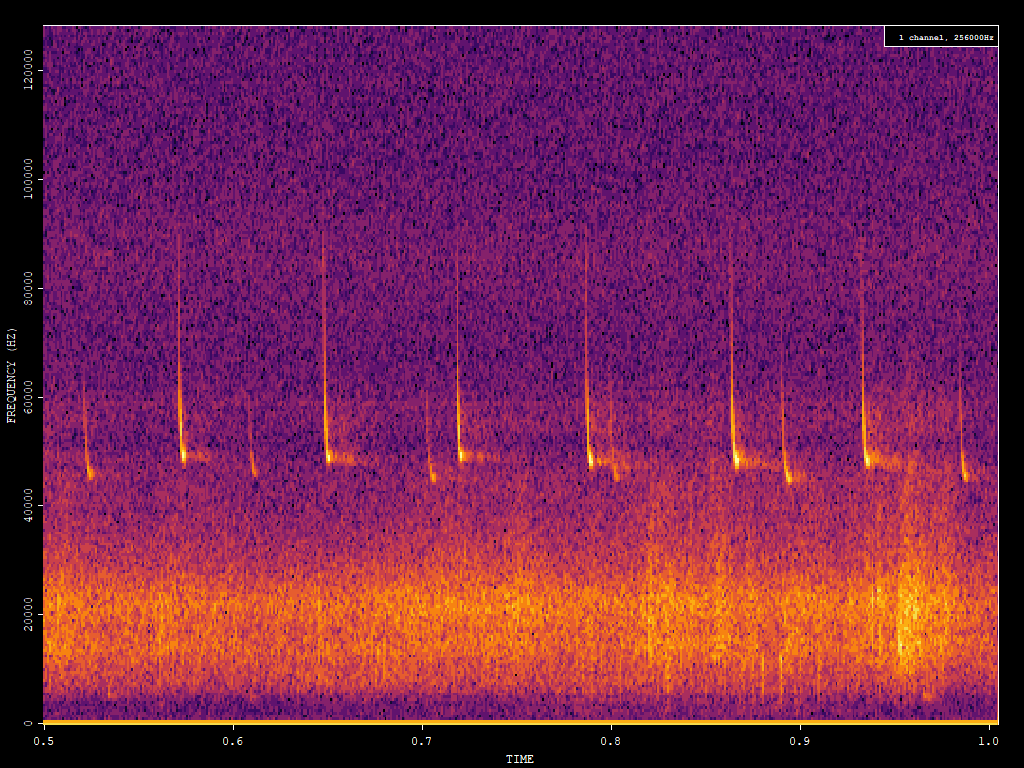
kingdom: Animalia
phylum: Chordata
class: Mammalia
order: Chiroptera
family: Vespertilionidae
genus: Pipistrellus
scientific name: Pipistrellus pipistrellus
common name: Common pipistrelle
